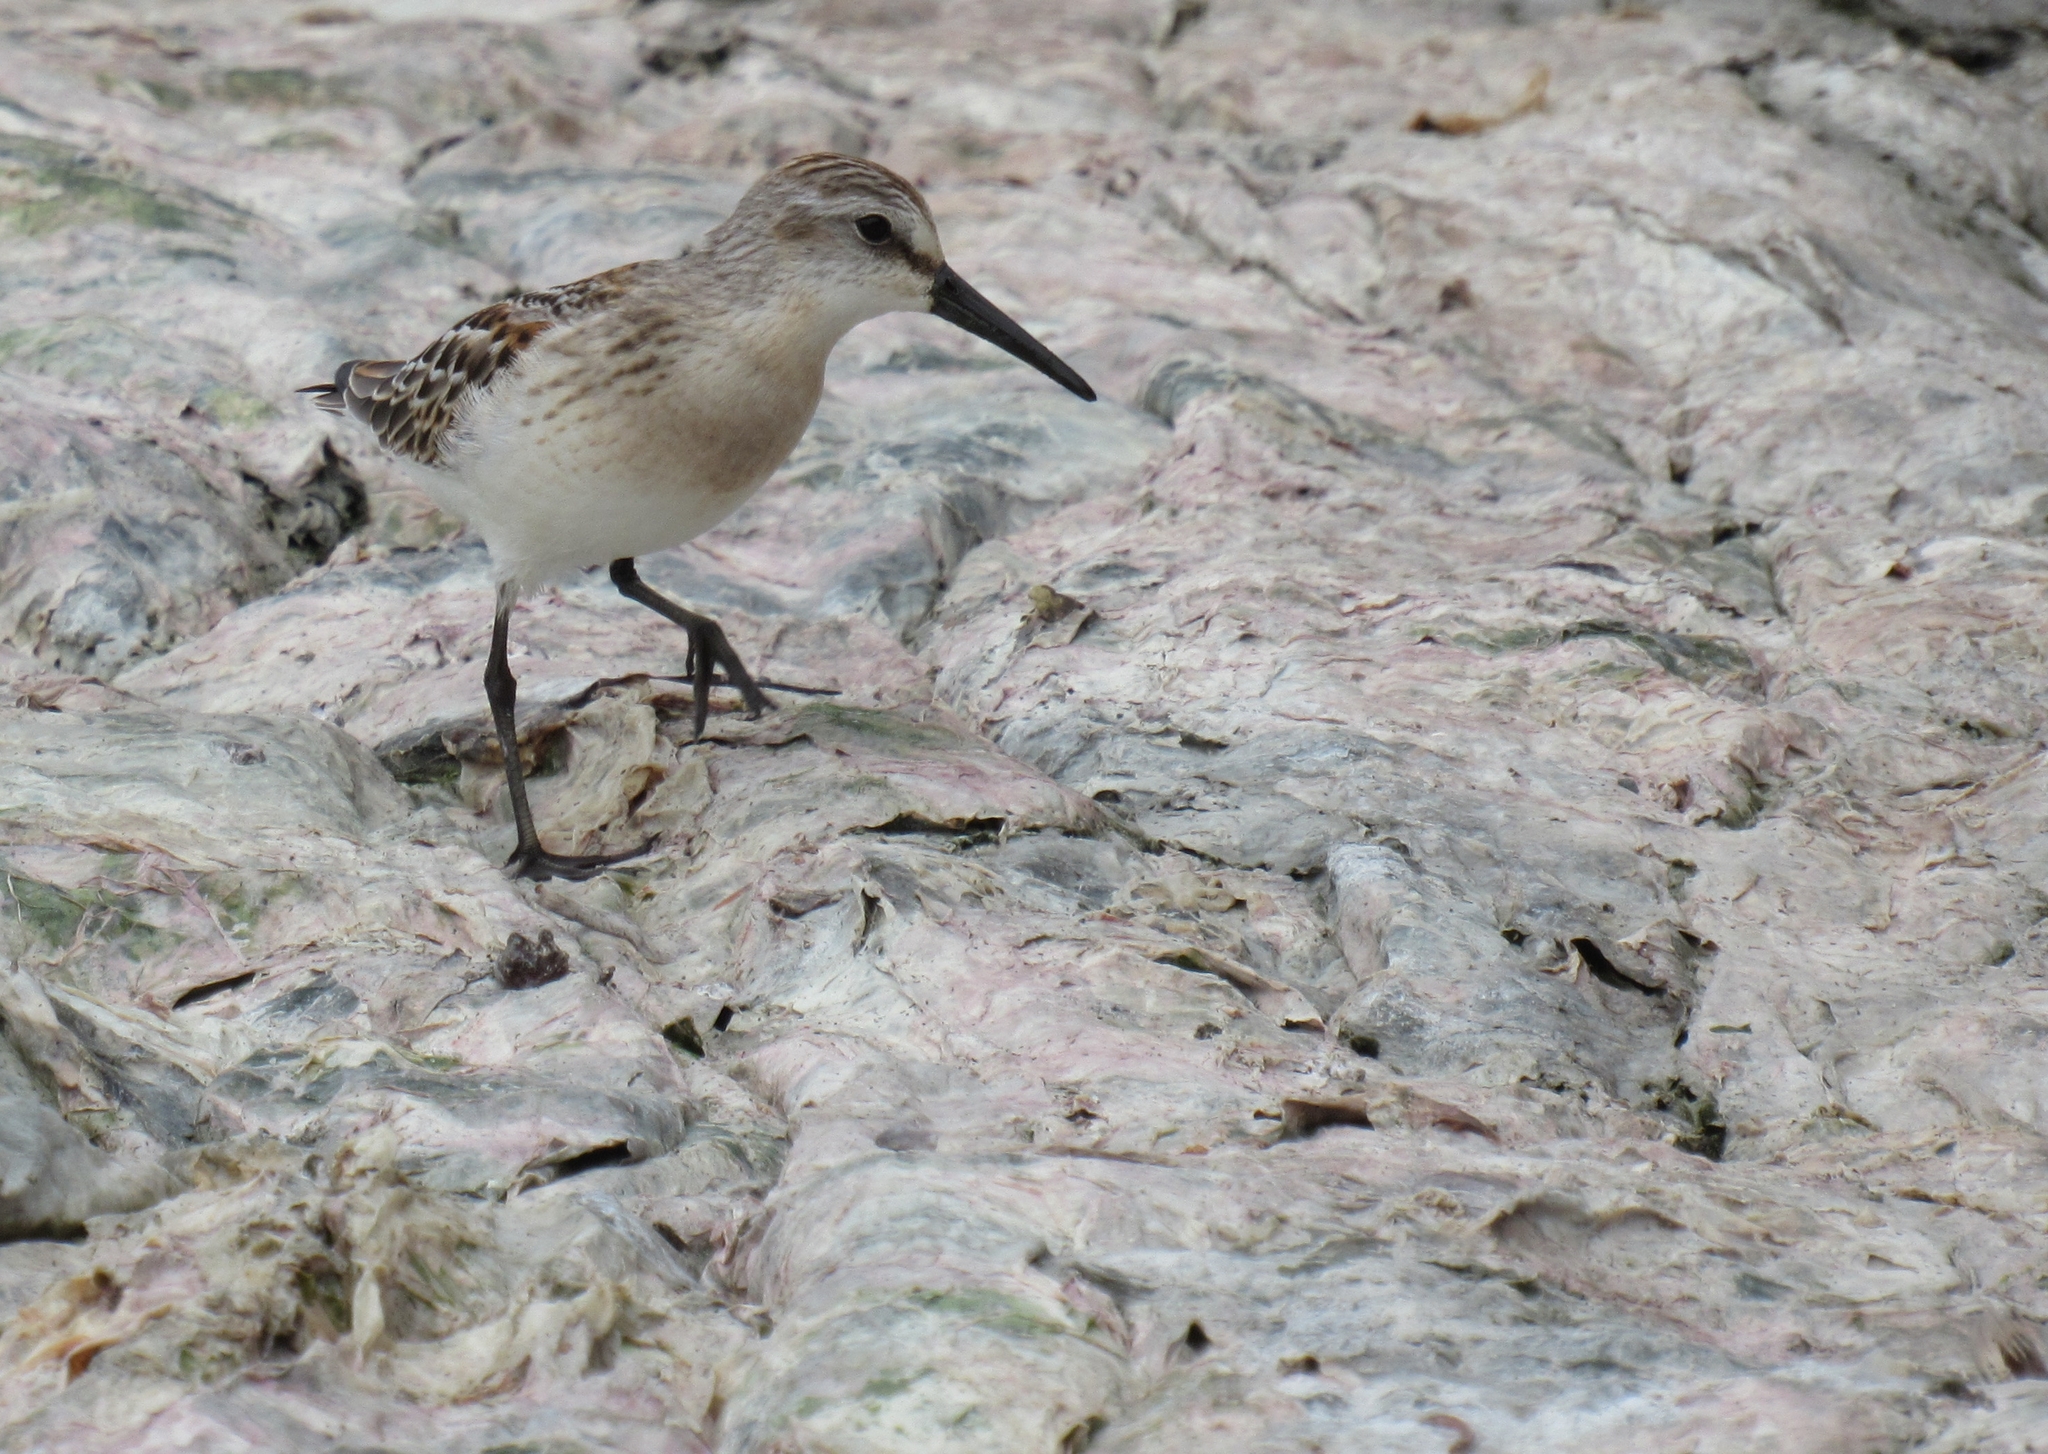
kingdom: Animalia
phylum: Chordata
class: Aves
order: Charadriiformes
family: Scolopacidae
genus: Calidris
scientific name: Calidris mauri
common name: Western sandpiper
